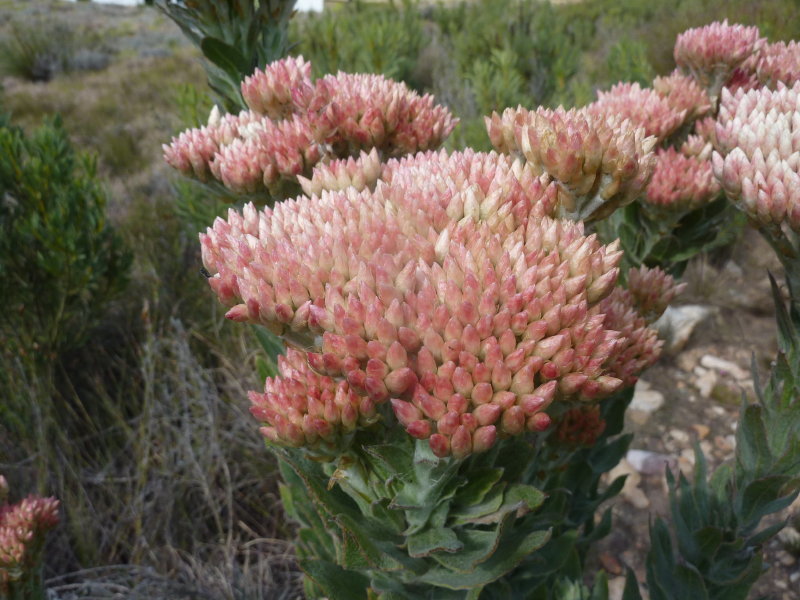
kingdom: Plantae
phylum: Tracheophyta
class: Magnoliopsida
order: Asterales
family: Asteraceae
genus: Syncarpha
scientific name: Syncarpha milleflora
